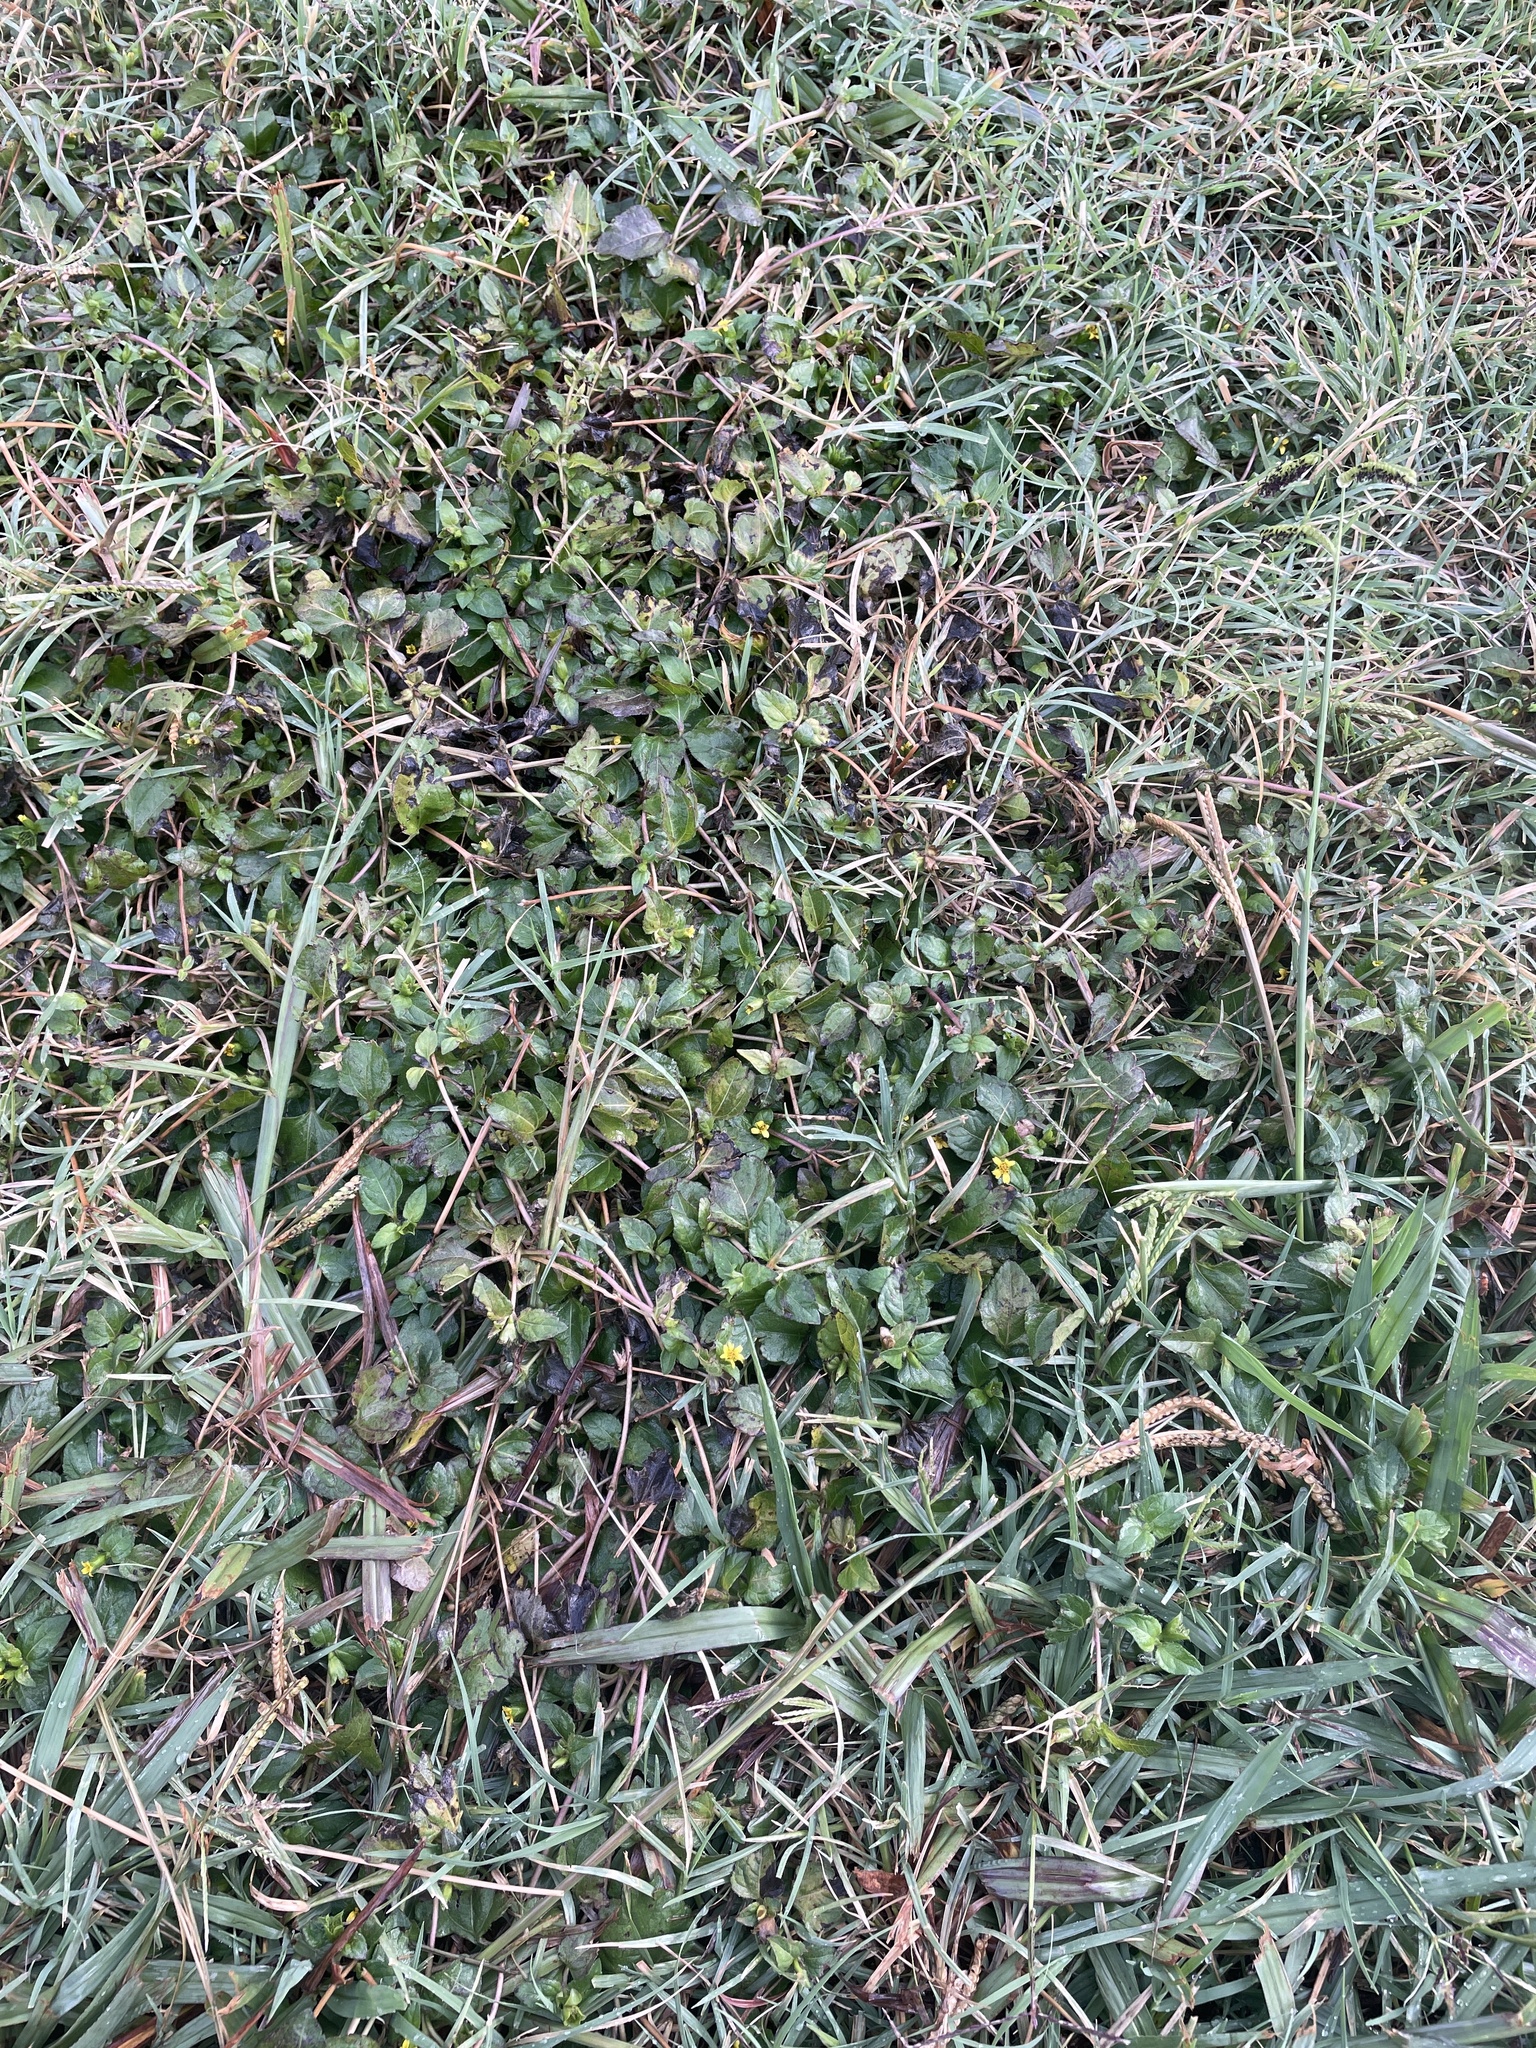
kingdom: Plantae
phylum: Tracheophyta
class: Magnoliopsida
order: Asterales
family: Asteraceae
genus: Calyptocarpus
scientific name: Calyptocarpus vialis
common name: Straggler daisy
